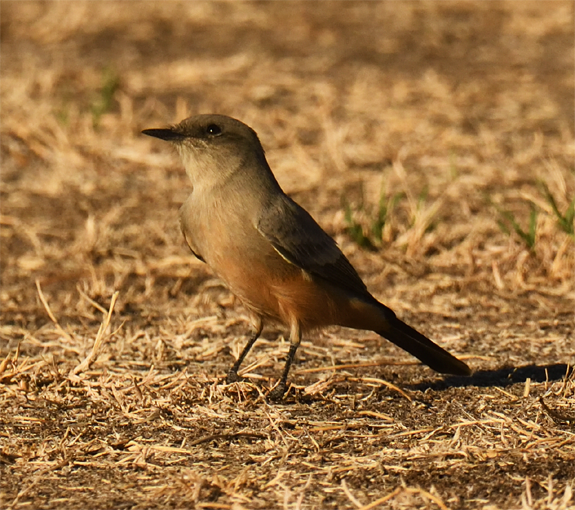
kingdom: Animalia
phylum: Chordata
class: Aves
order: Passeriformes
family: Tyrannidae
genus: Sayornis
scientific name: Sayornis saya
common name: Say's phoebe
